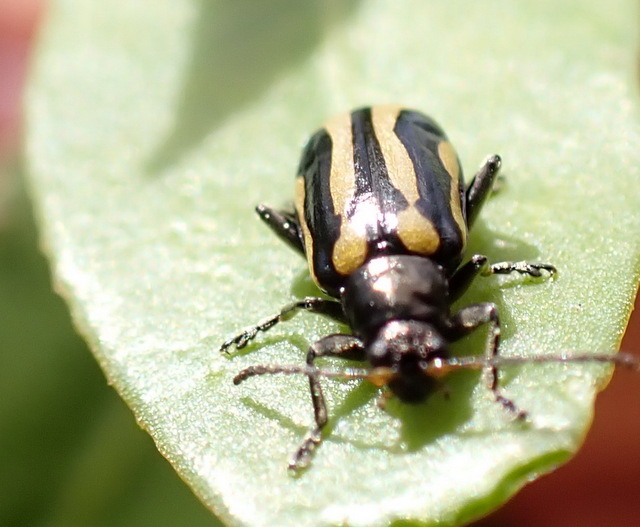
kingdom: Animalia
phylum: Arthropoda
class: Insecta
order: Coleoptera
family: Chrysomelidae
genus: Agasicles
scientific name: Agasicles hygrophila
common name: Alligatorweed flea beetle
